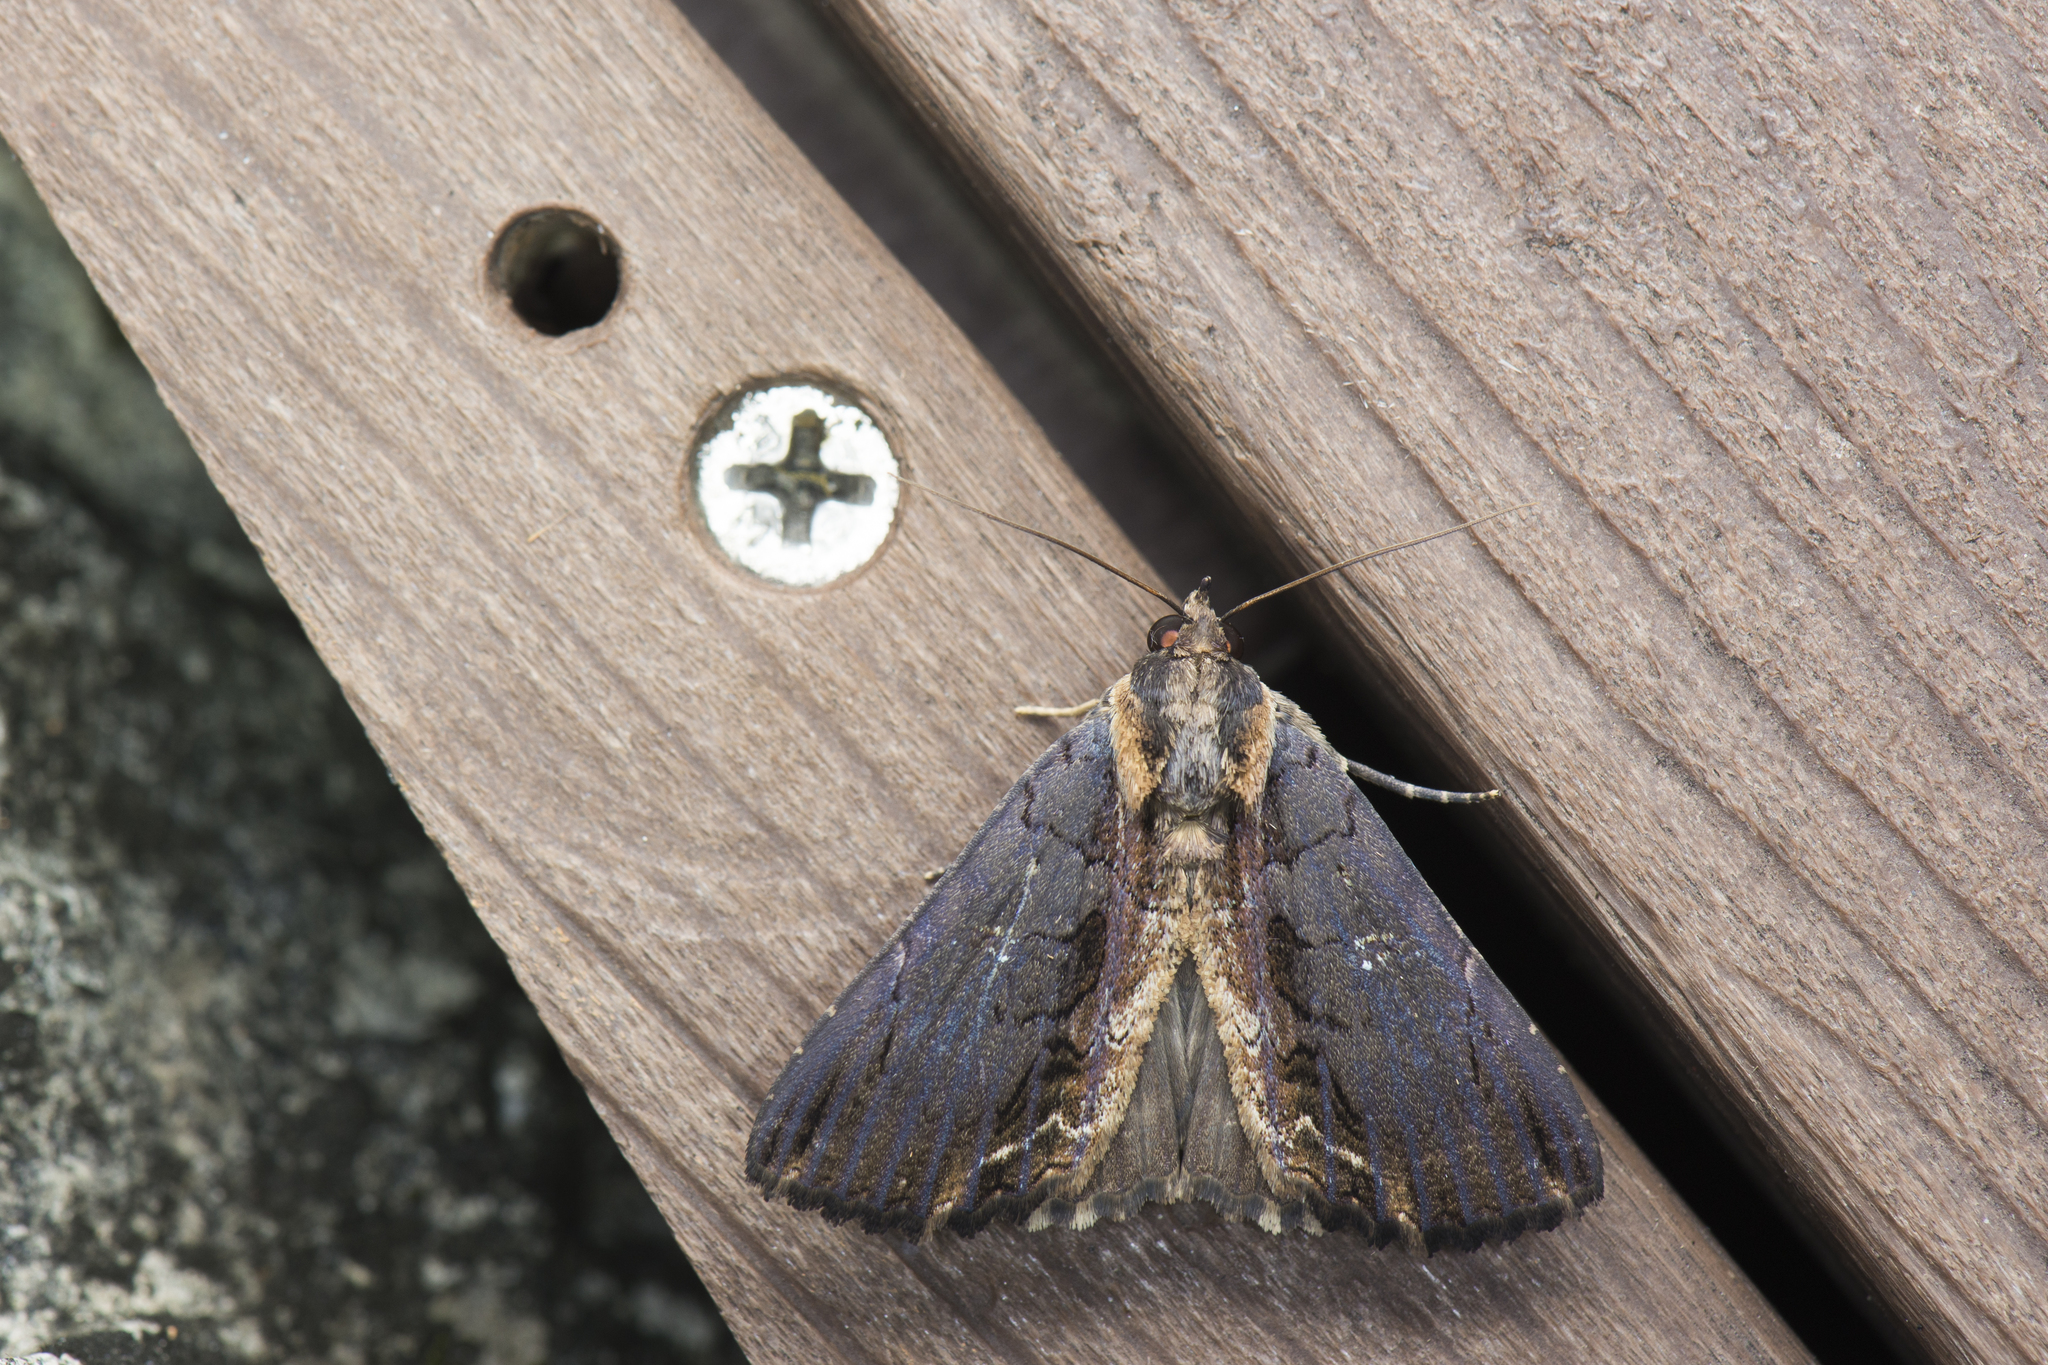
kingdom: Animalia
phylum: Arthropoda
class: Insecta
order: Lepidoptera
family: Erebidae
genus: Ercheia
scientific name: Ercheia cyllaria
